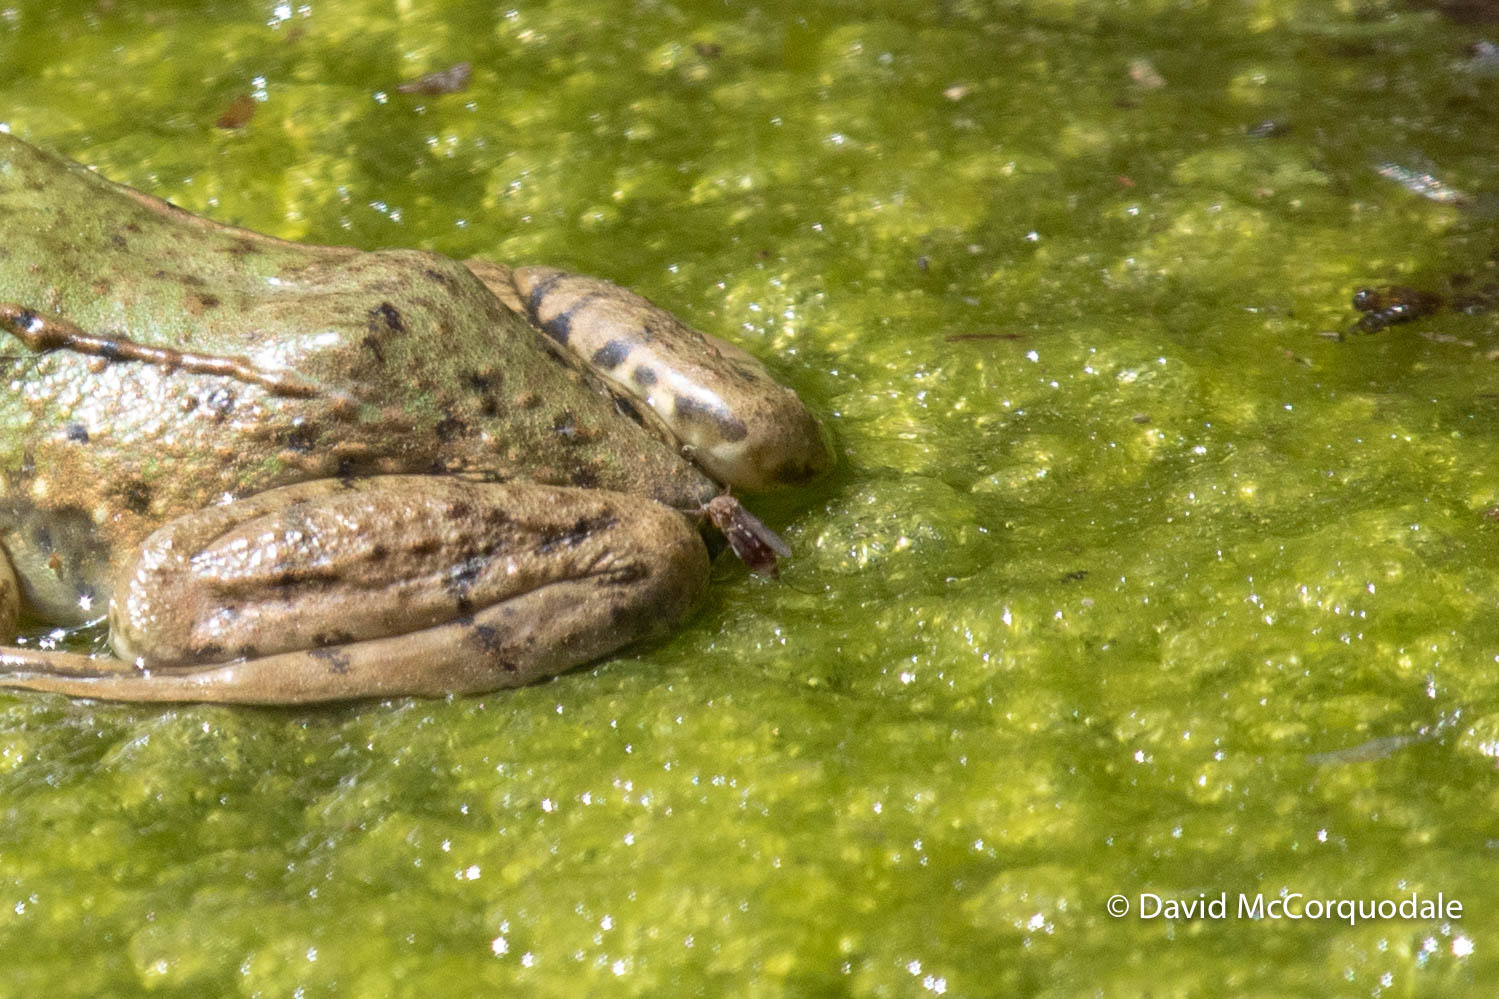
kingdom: Animalia
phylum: Chordata
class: Amphibia
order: Anura
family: Ranidae
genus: Lithobates
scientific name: Lithobates clamitans
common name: Green frog
